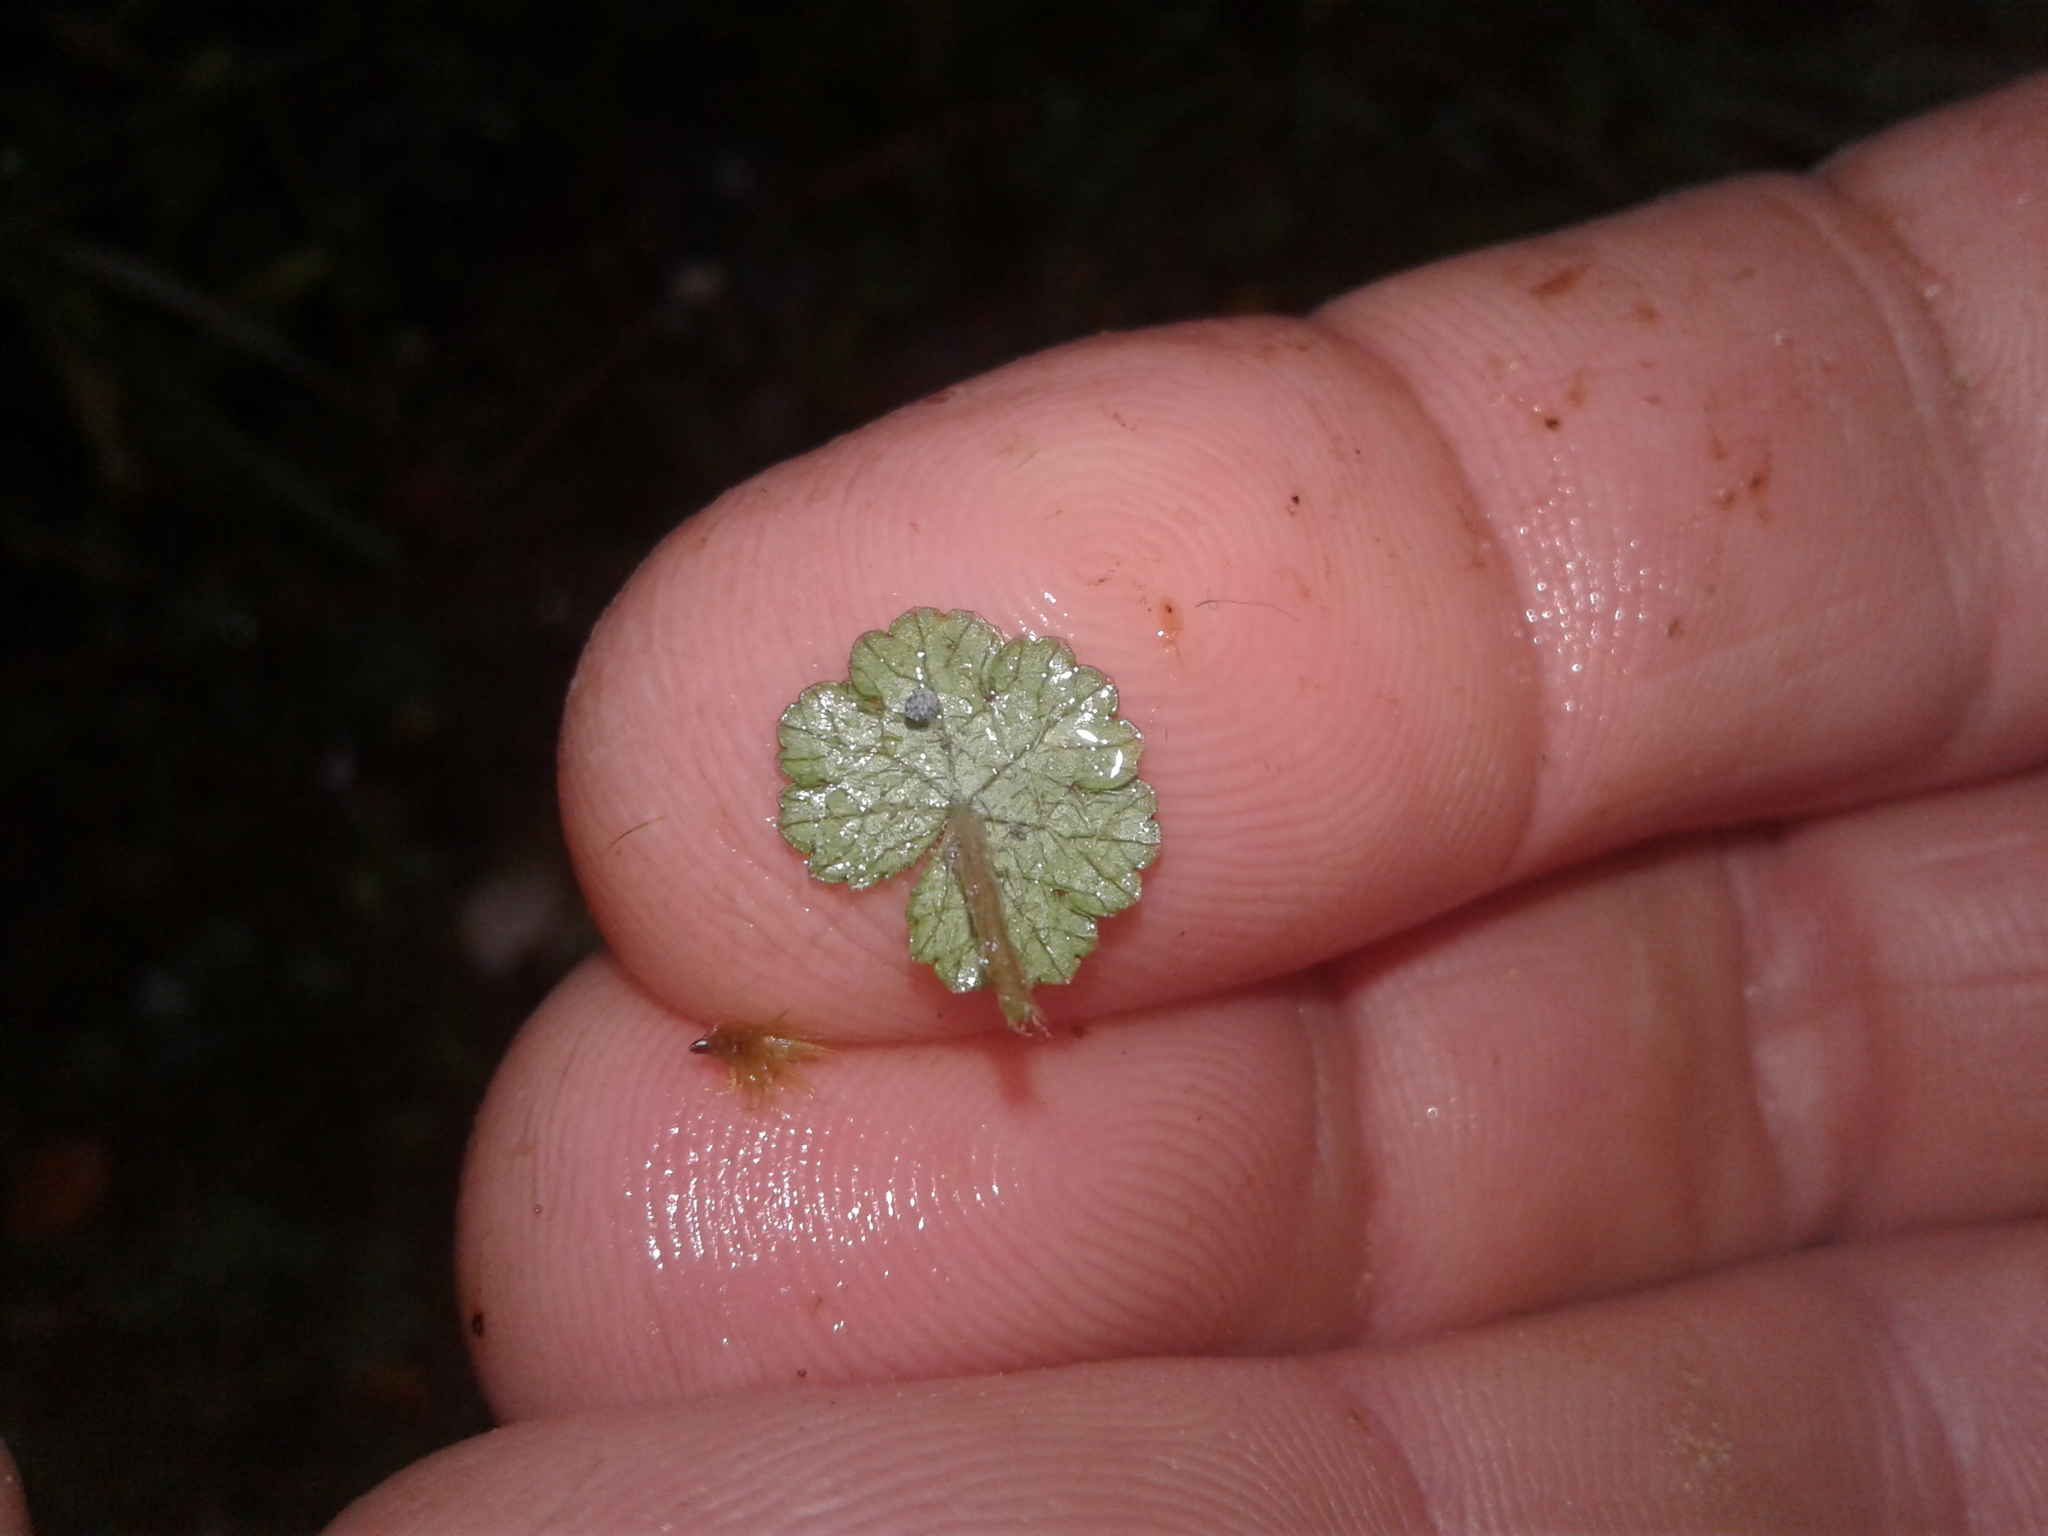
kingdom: Plantae
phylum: Tracheophyta
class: Magnoliopsida
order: Apiales
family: Araliaceae
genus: Hydrocotyle
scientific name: Hydrocotyle moschata
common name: Hairy pennywort
